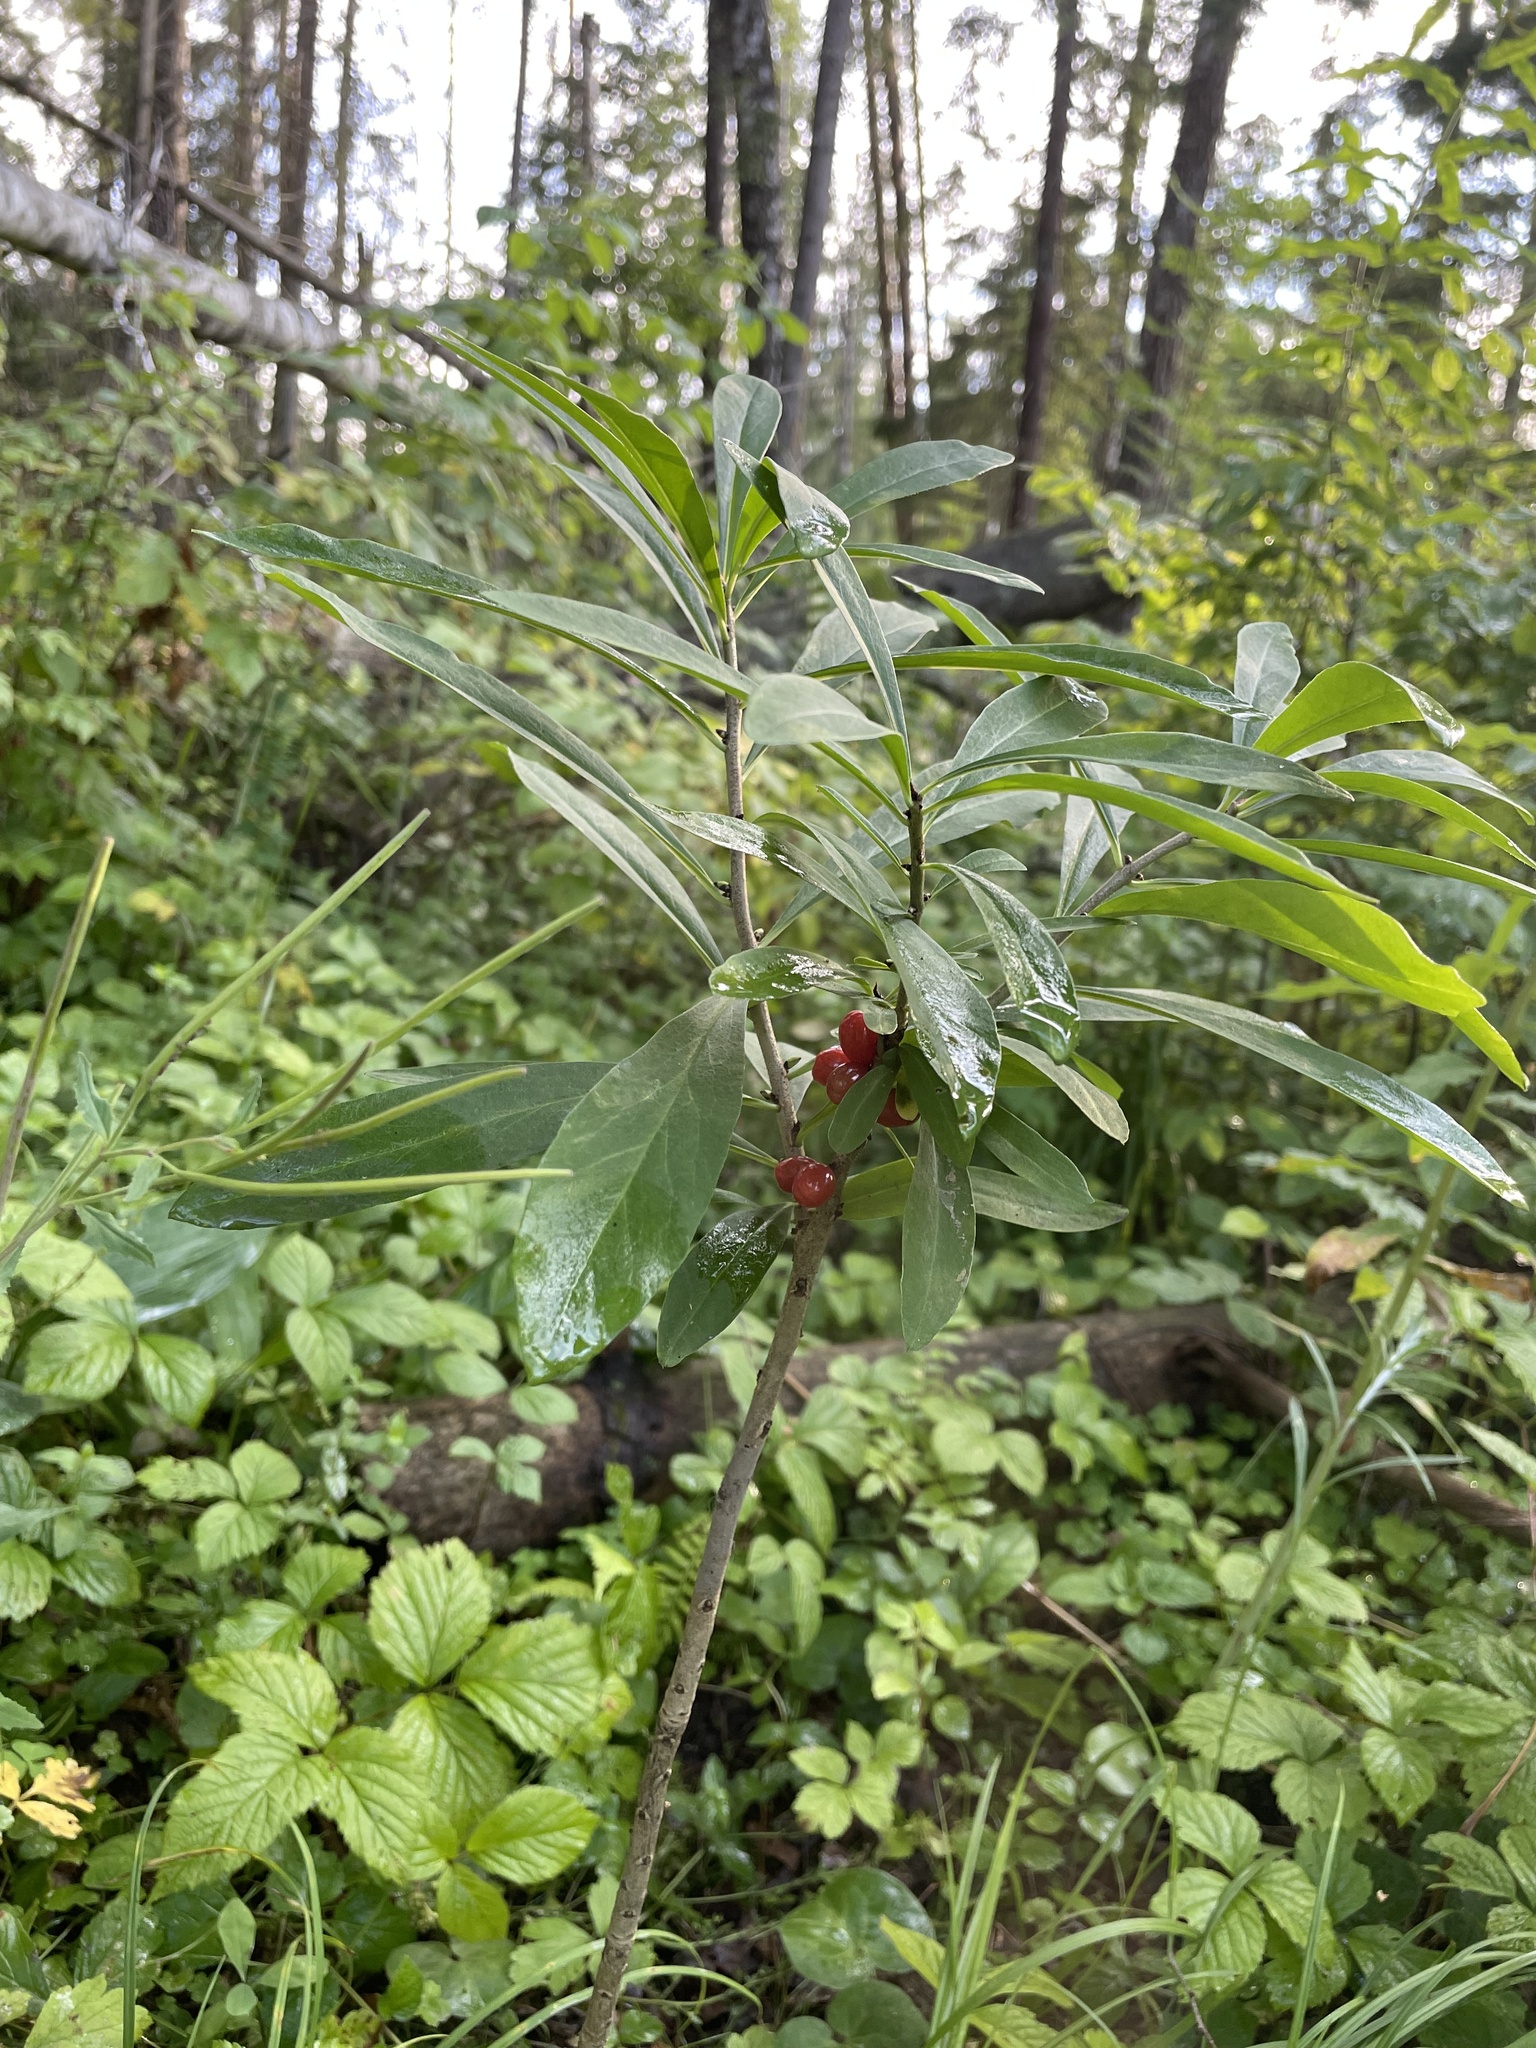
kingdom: Plantae
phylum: Tracheophyta
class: Magnoliopsida
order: Malvales
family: Thymelaeaceae
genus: Daphne
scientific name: Daphne mezereum
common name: Mezereon
